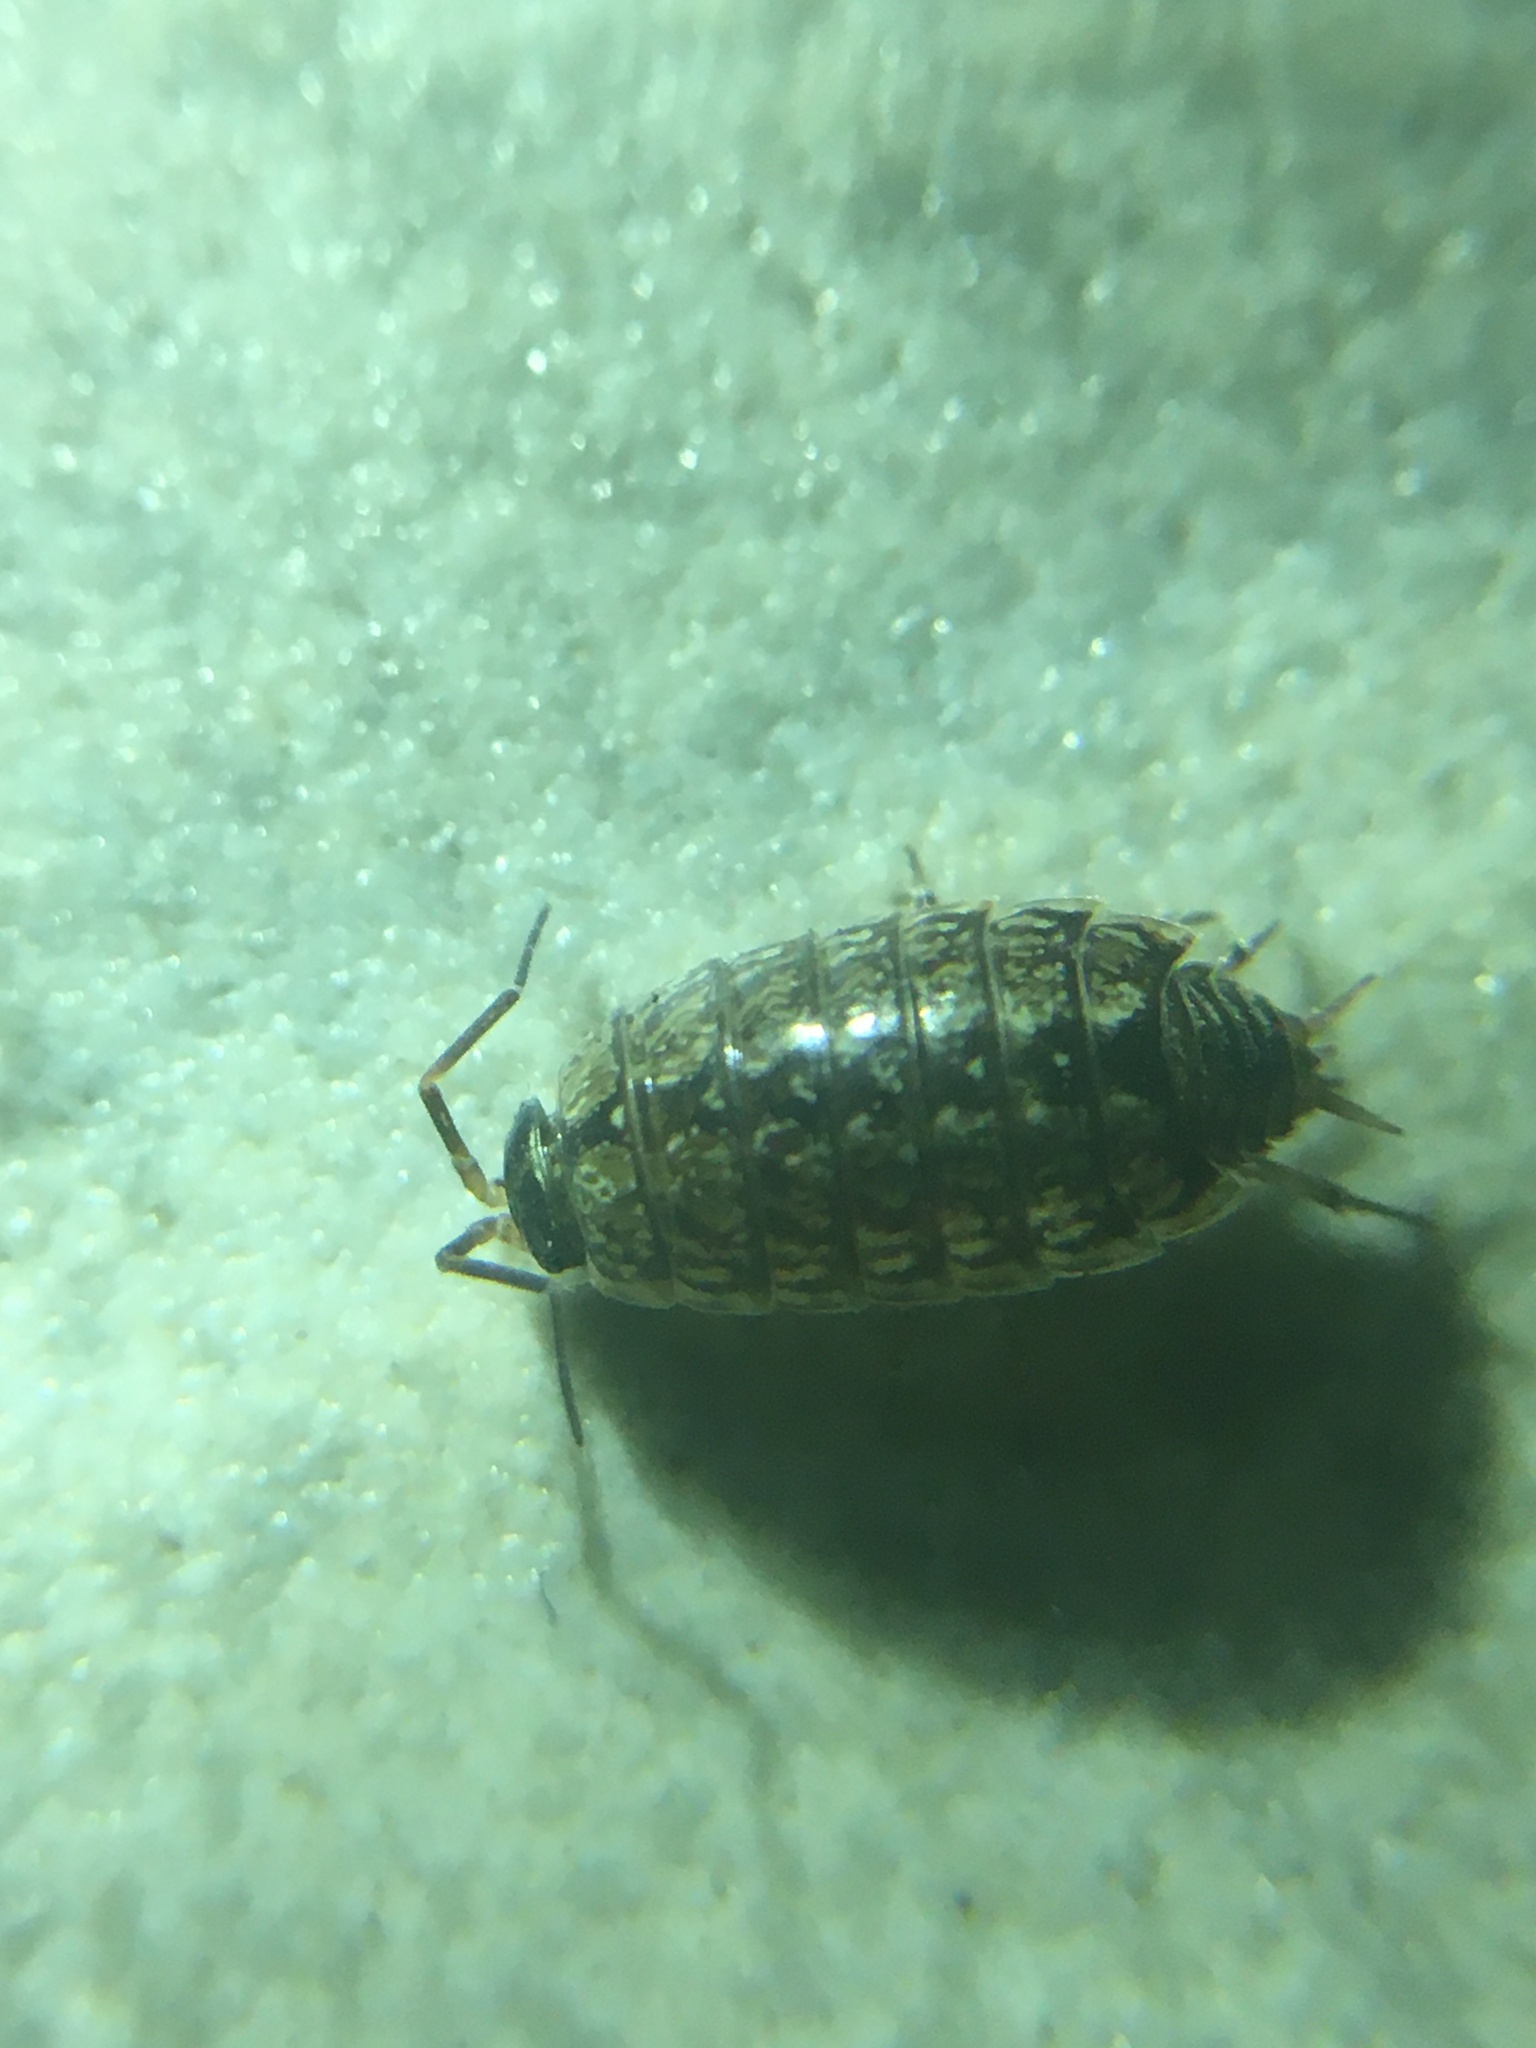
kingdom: Animalia
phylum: Arthropoda
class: Malacostraca
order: Isopoda
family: Philosciidae
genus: Philoscia
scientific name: Philoscia muscorum
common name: Common striped woodlouse
